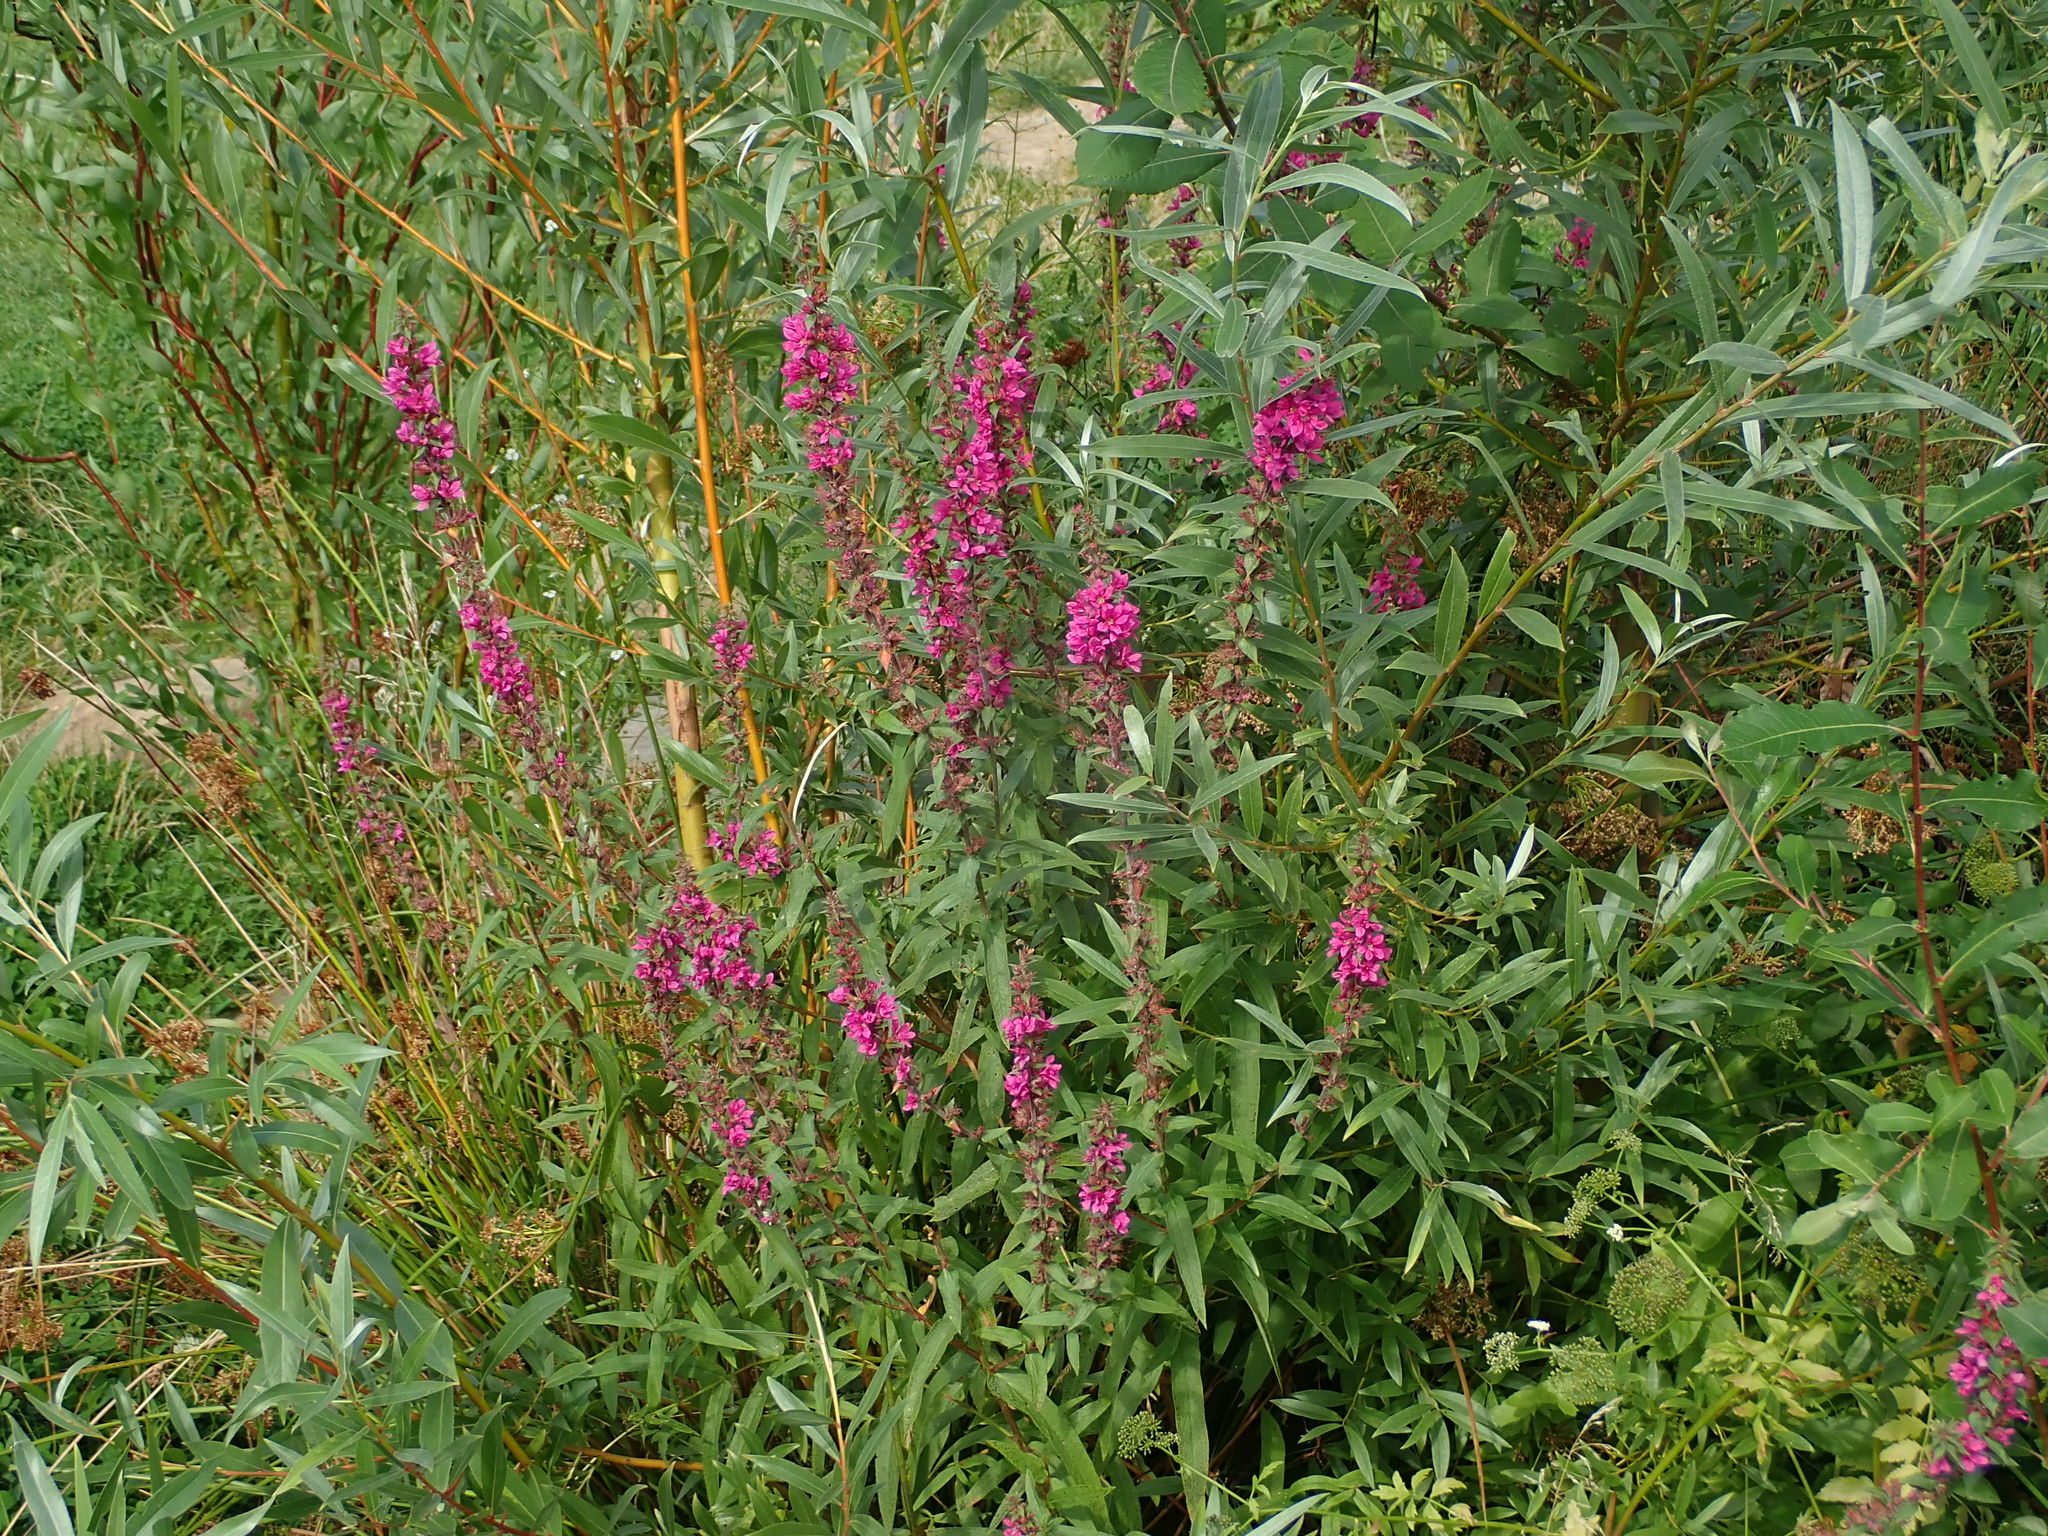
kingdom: Plantae
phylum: Tracheophyta
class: Magnoliopsida
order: Myrtales
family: Lythraceae
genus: Lythrum
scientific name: Lythrum salicaria
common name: Purple loosestrife
